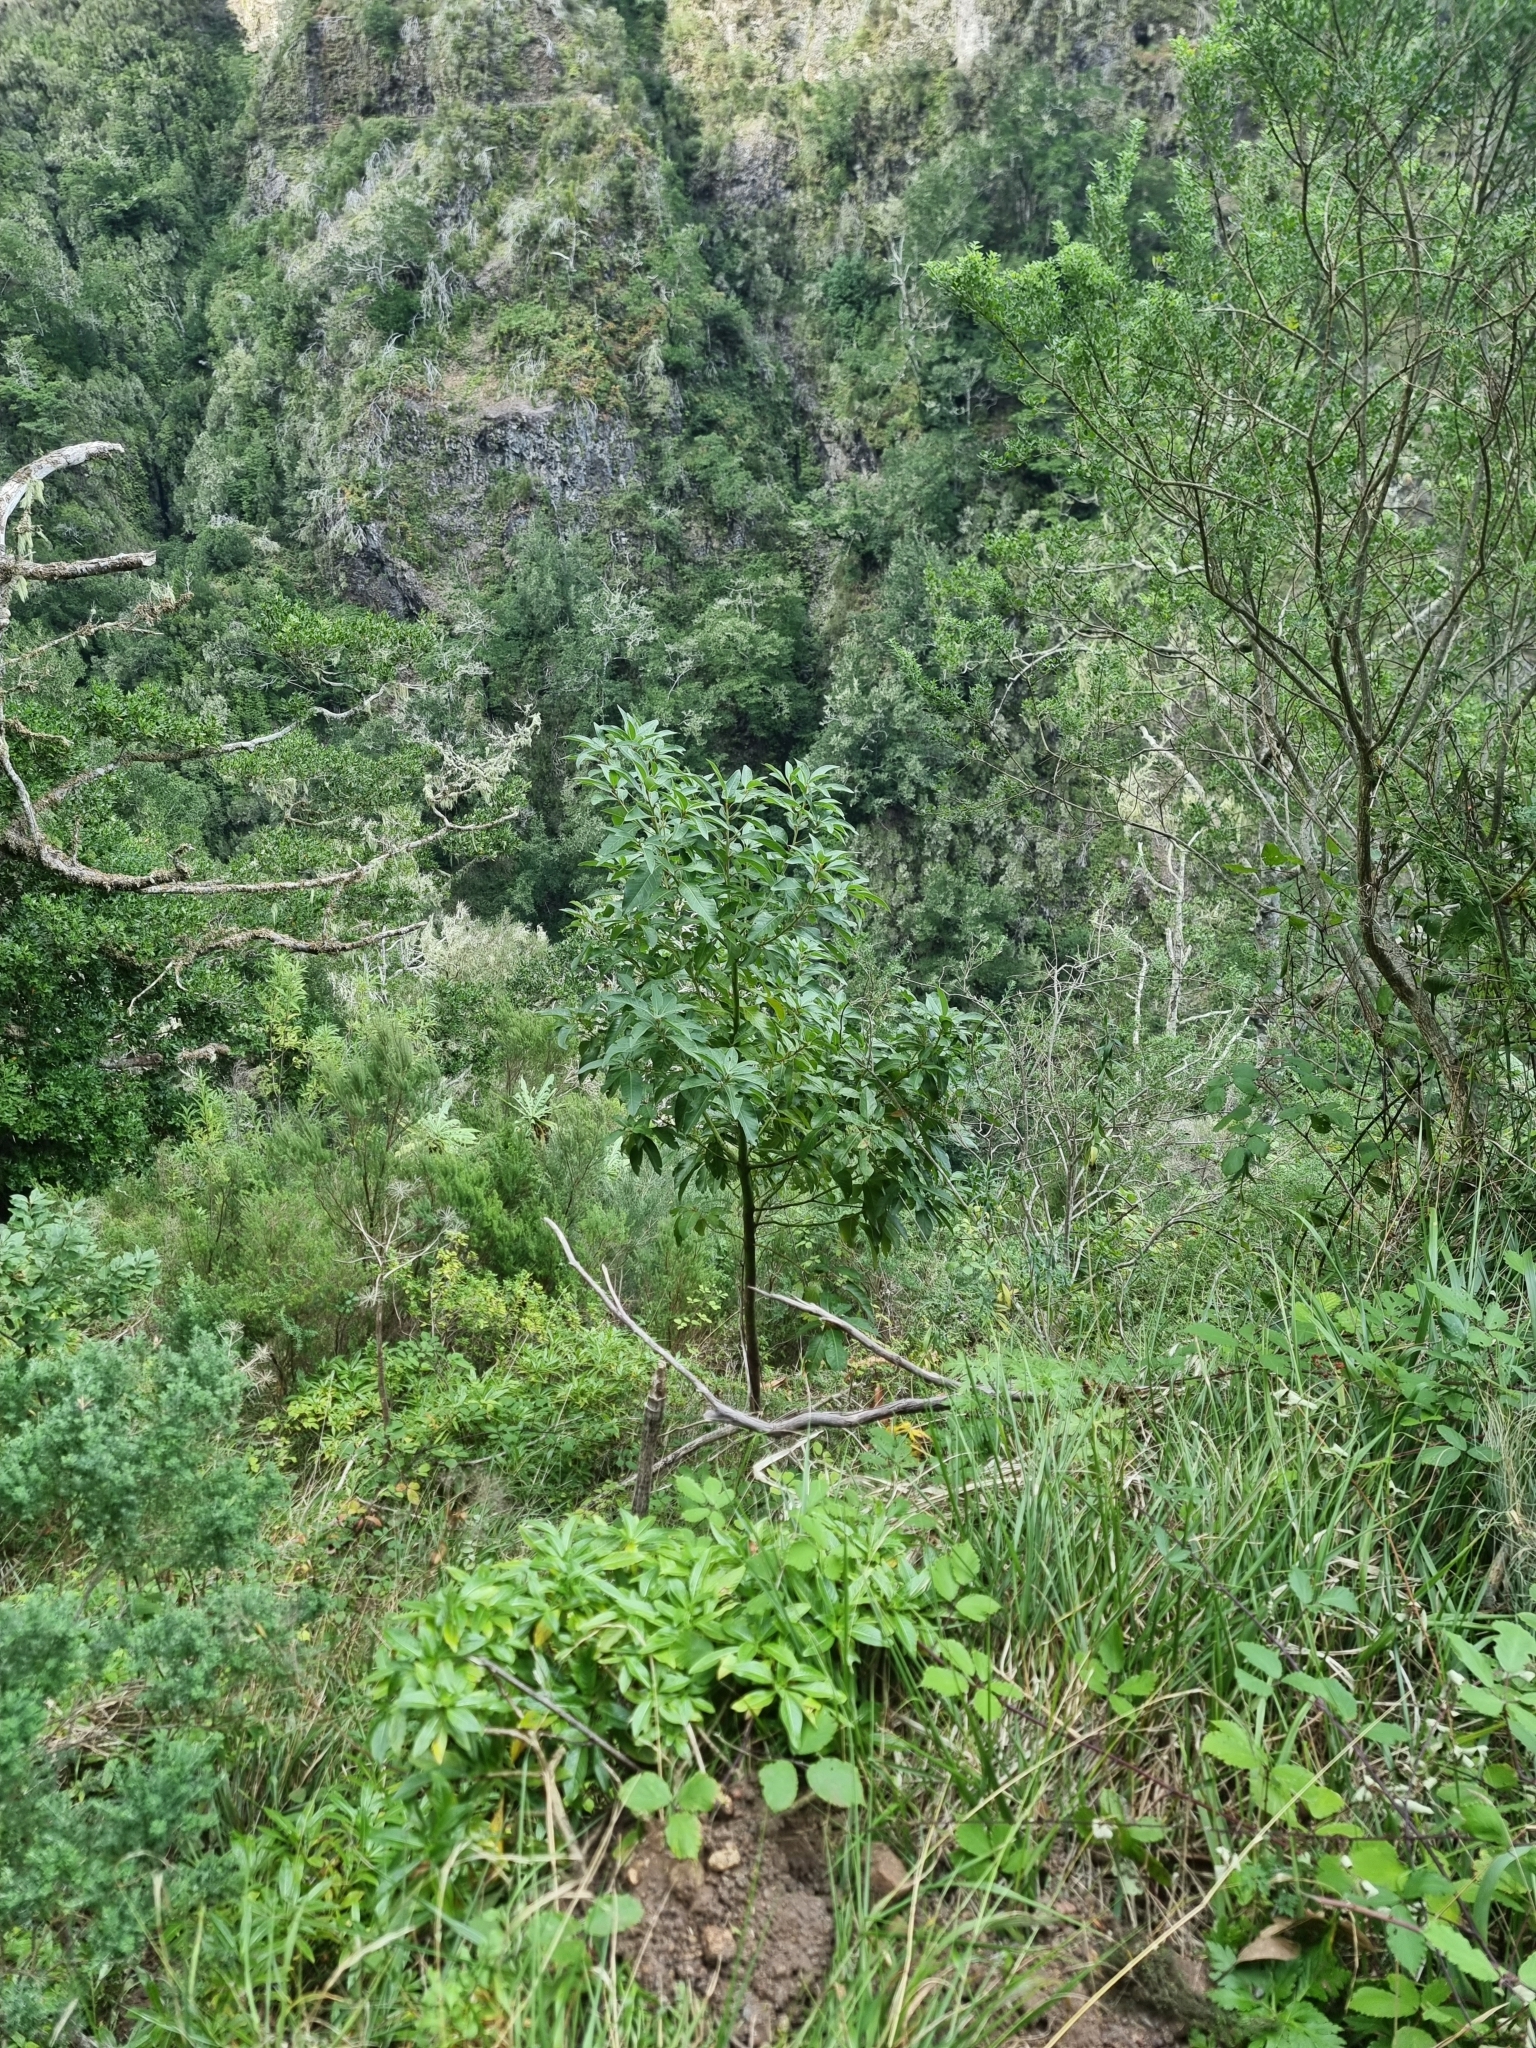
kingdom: Plantae
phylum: Tracheophyta
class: Magnoliopsida
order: Laurales
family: Lauraceae
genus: Persea
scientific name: Persea indica
